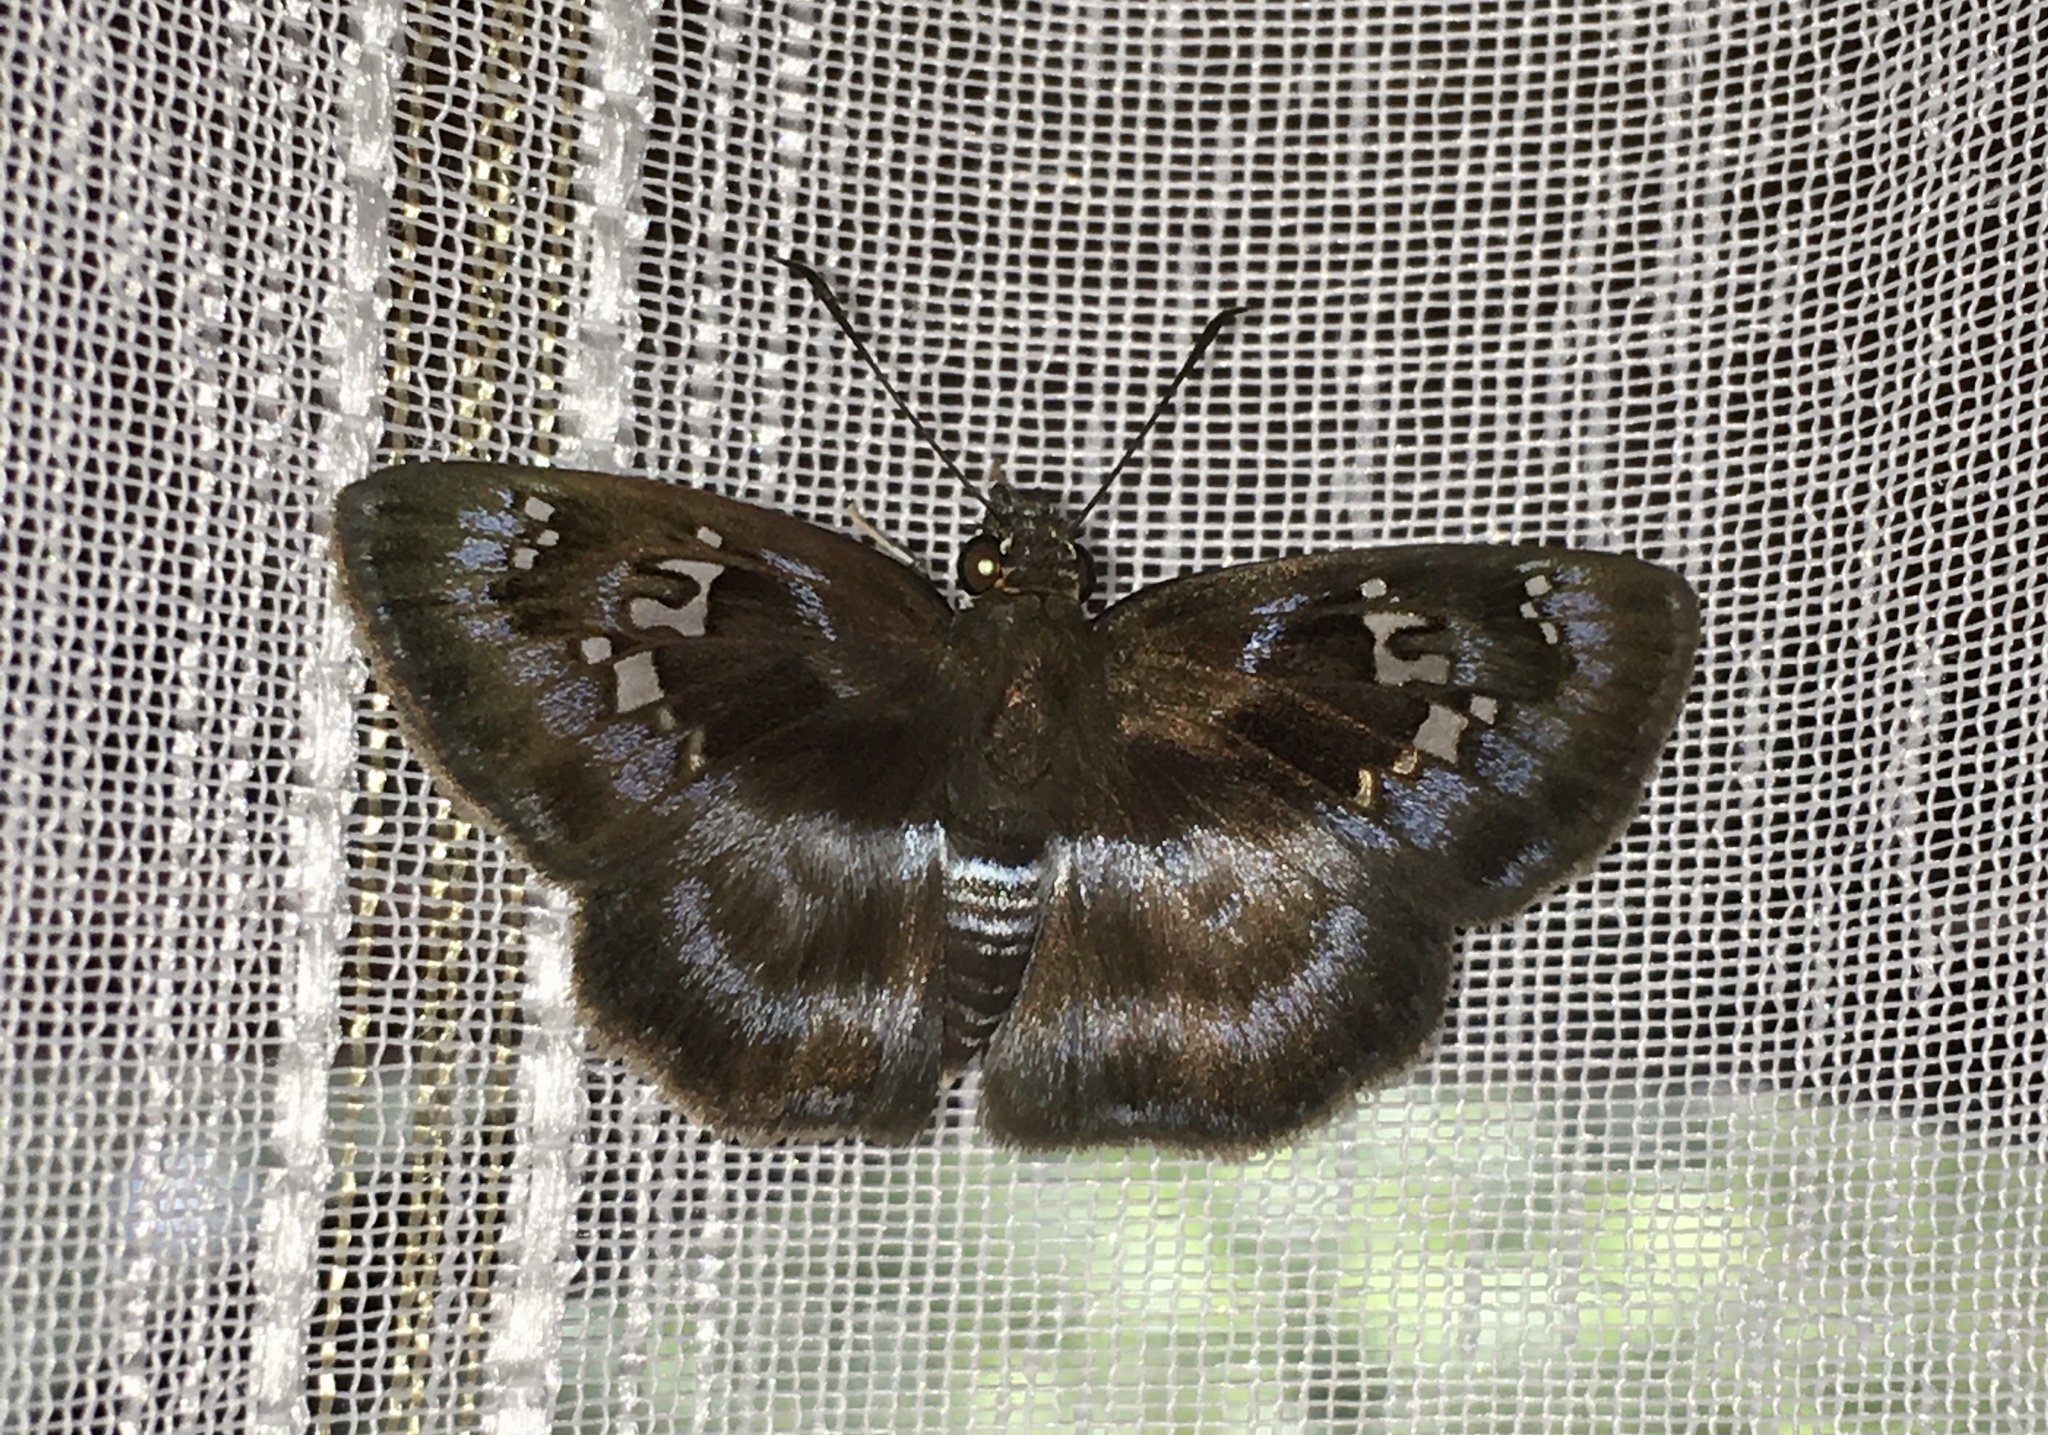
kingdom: Animalia
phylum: Arthropoda
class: Insecta
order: Lepidoptera
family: Hesperiidae
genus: Quadrus
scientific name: Quadrus cerialis
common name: Common blue-skipper
